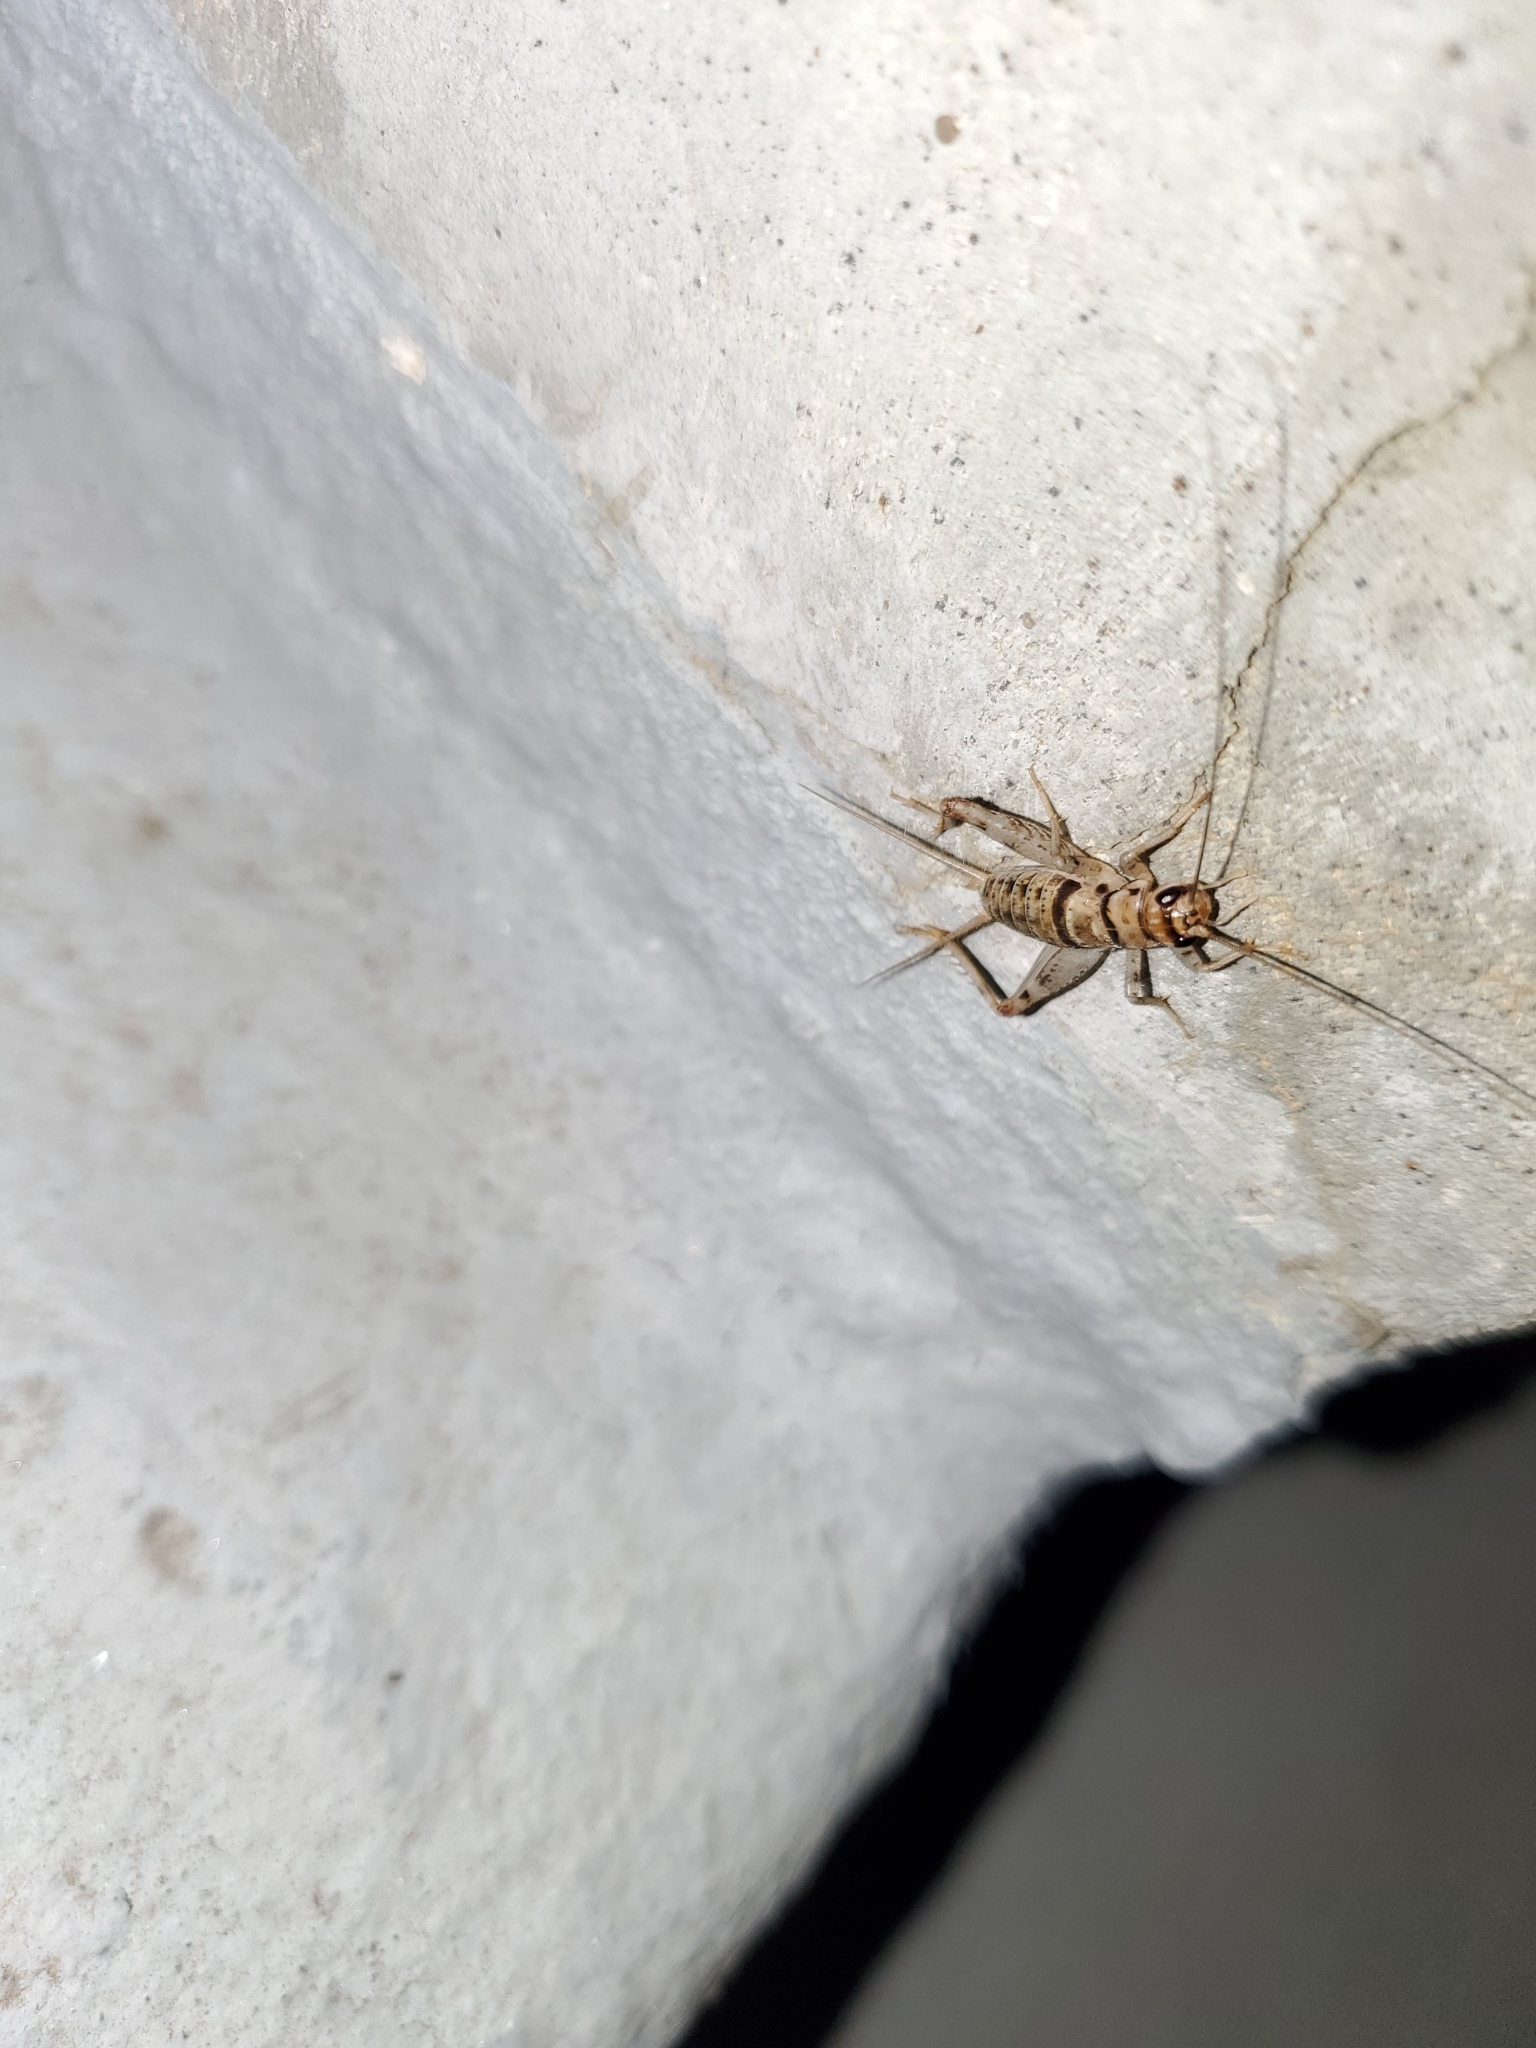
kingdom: Animalia
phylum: Arthropoda
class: Insecta
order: Orthoptera
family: Gryllidae
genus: Gryllodes
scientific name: Gryllodes sigillatus
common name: Tropical house cricket
